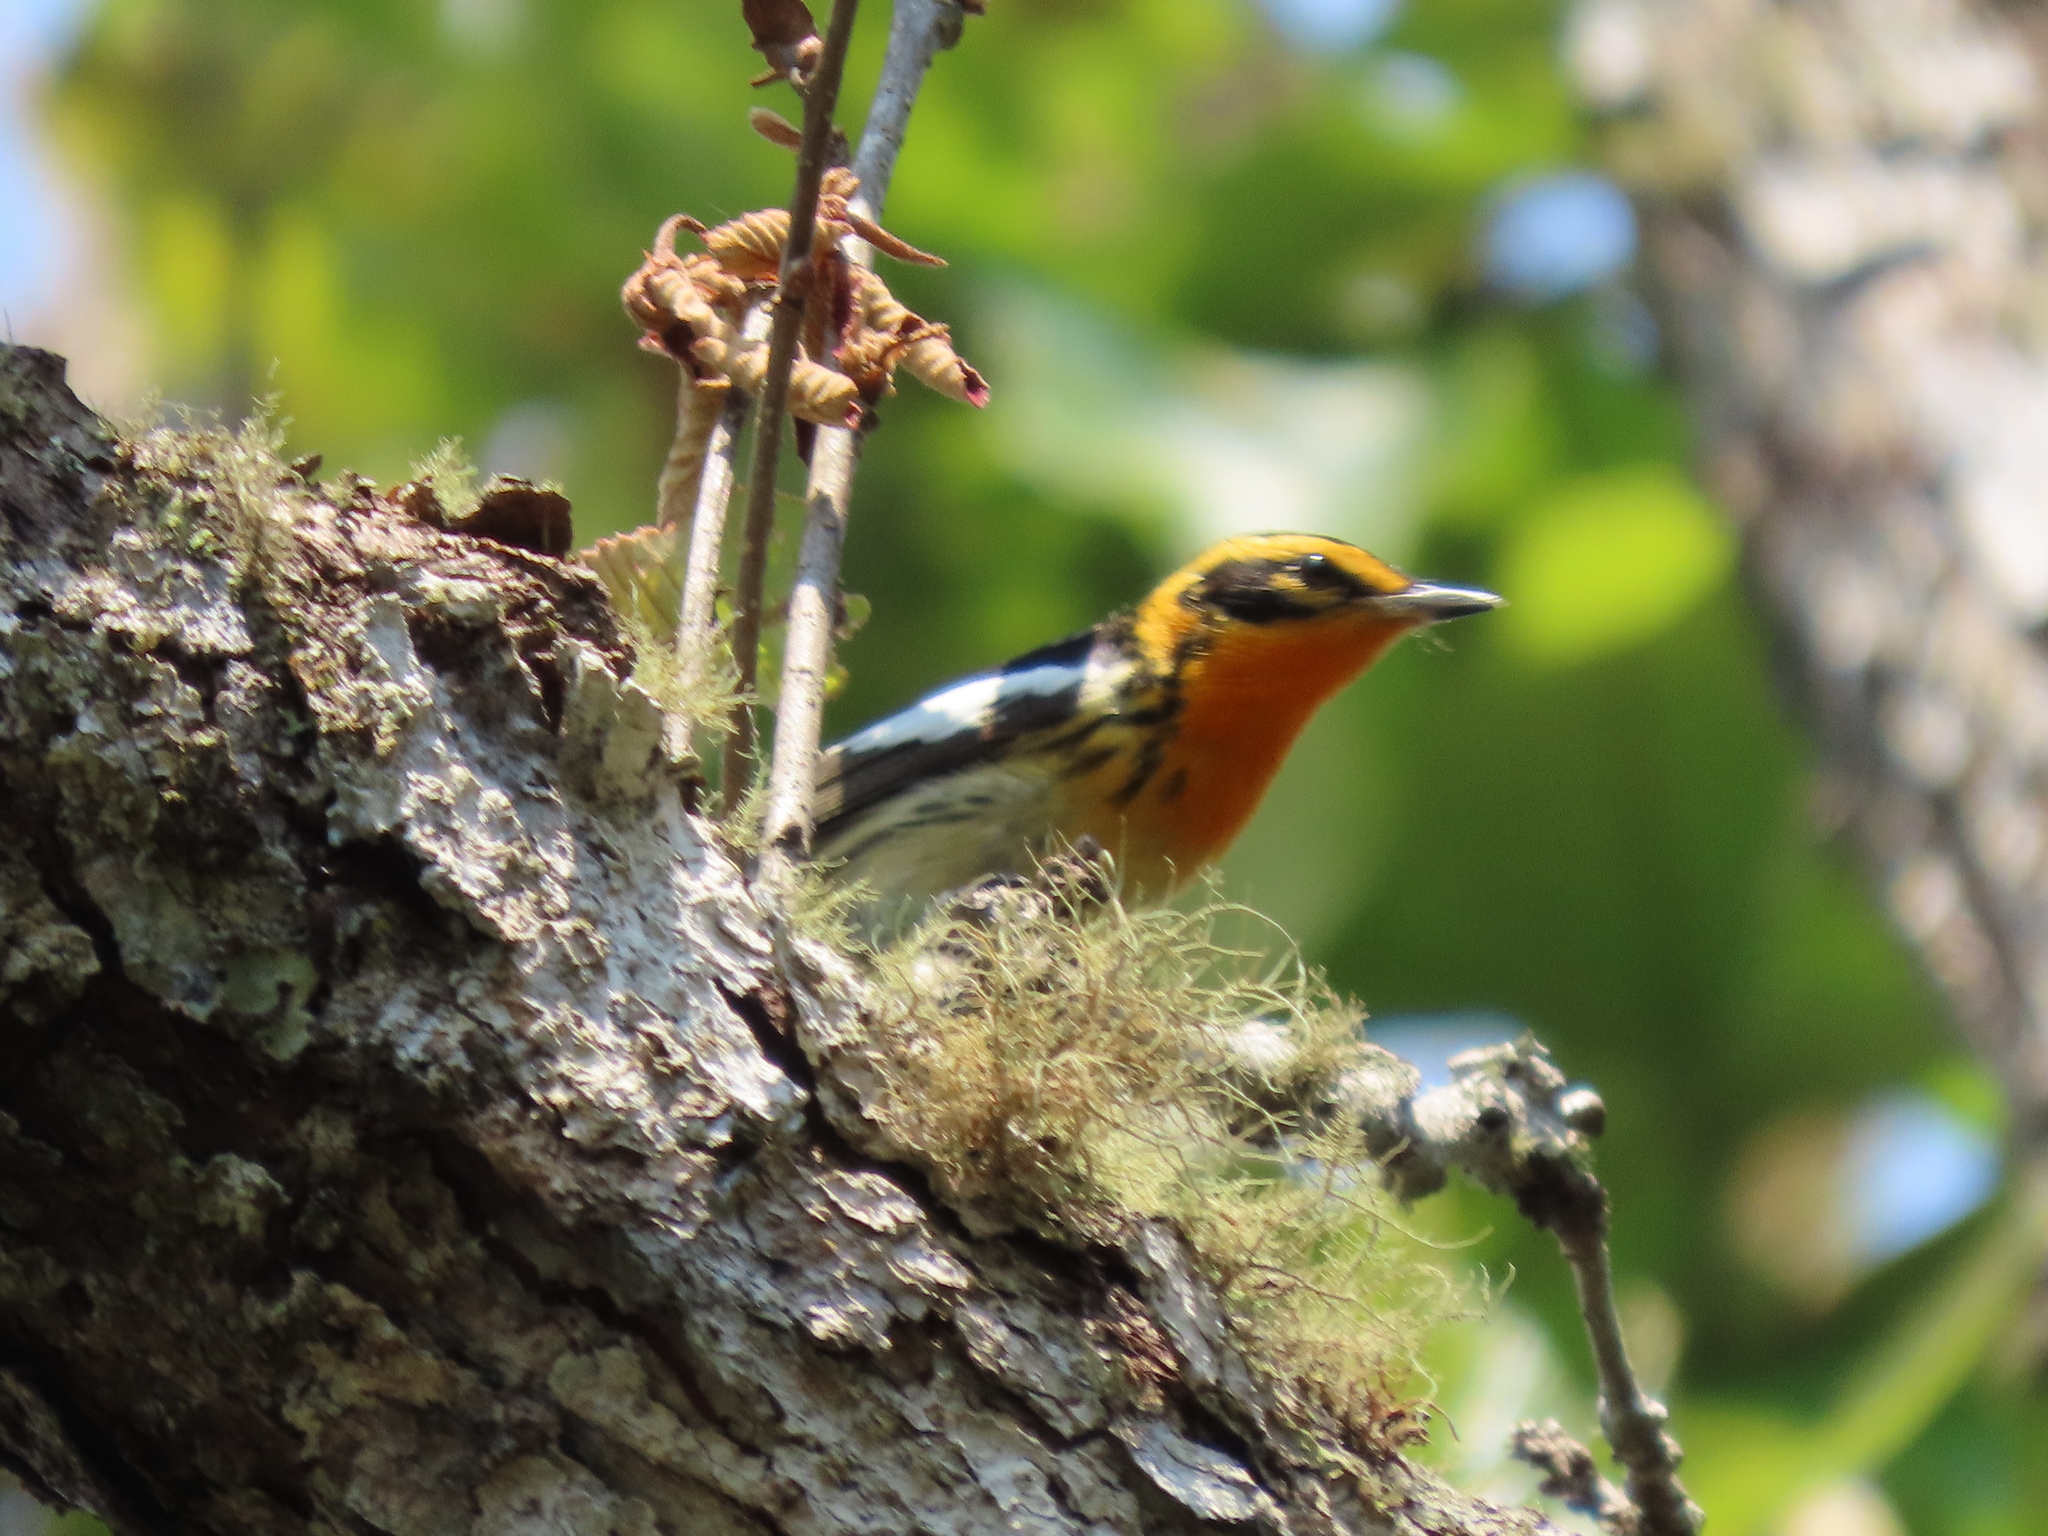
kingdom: Animalia
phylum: Chordata
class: Aves
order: Passeriformes
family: Parulidae
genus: Setophaga
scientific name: Setophaga fusca
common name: Blackburnian warbler
